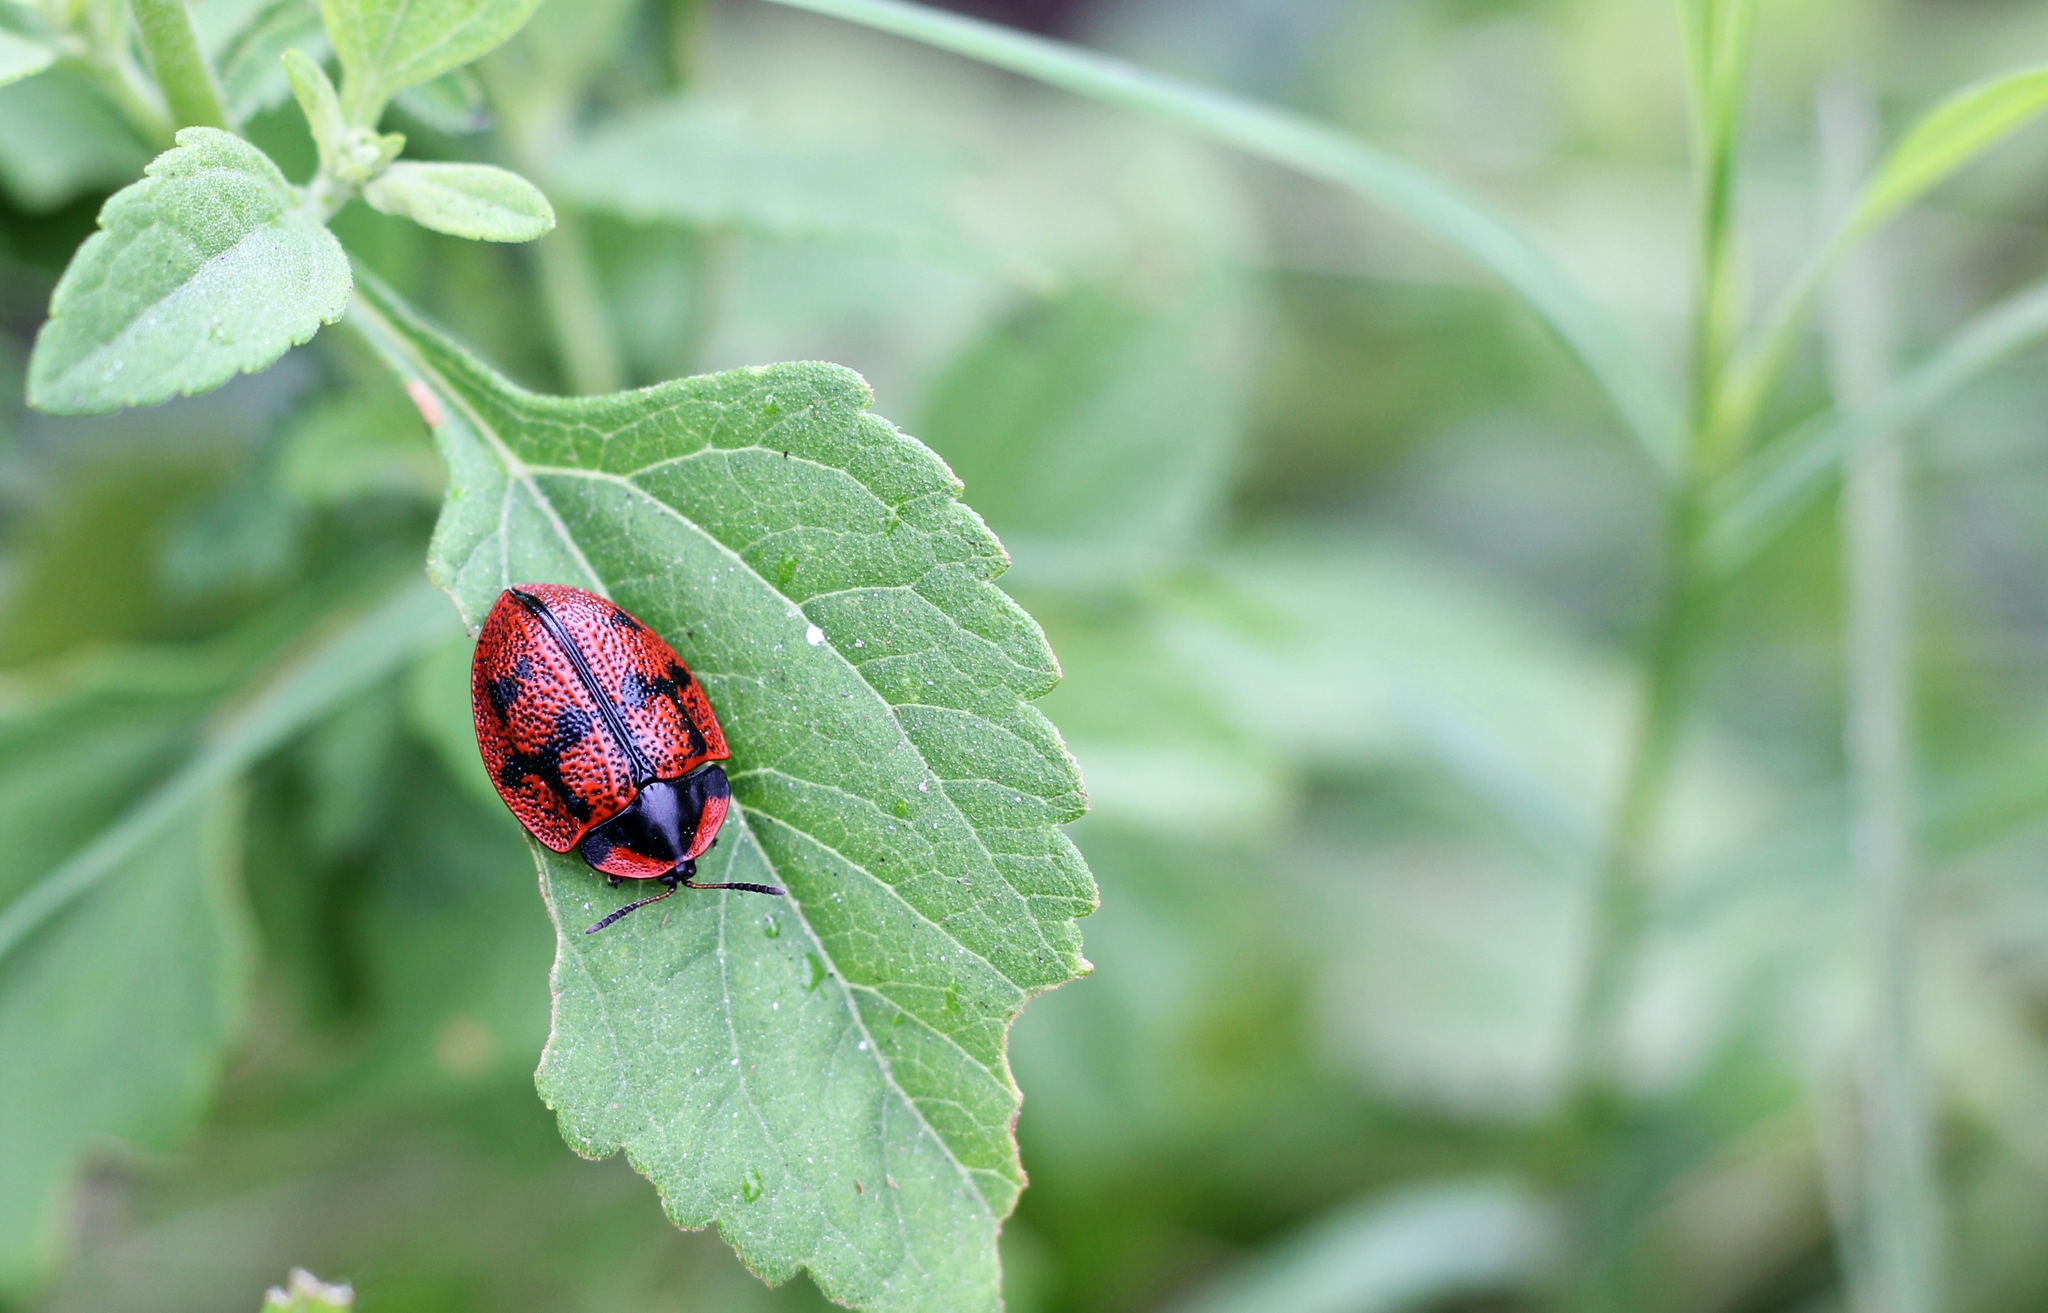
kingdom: Animalia
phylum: Arthropoda
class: Insecta
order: Coleoptera
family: Chrysomelidae
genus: Botanochara
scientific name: Botanochara invasa
